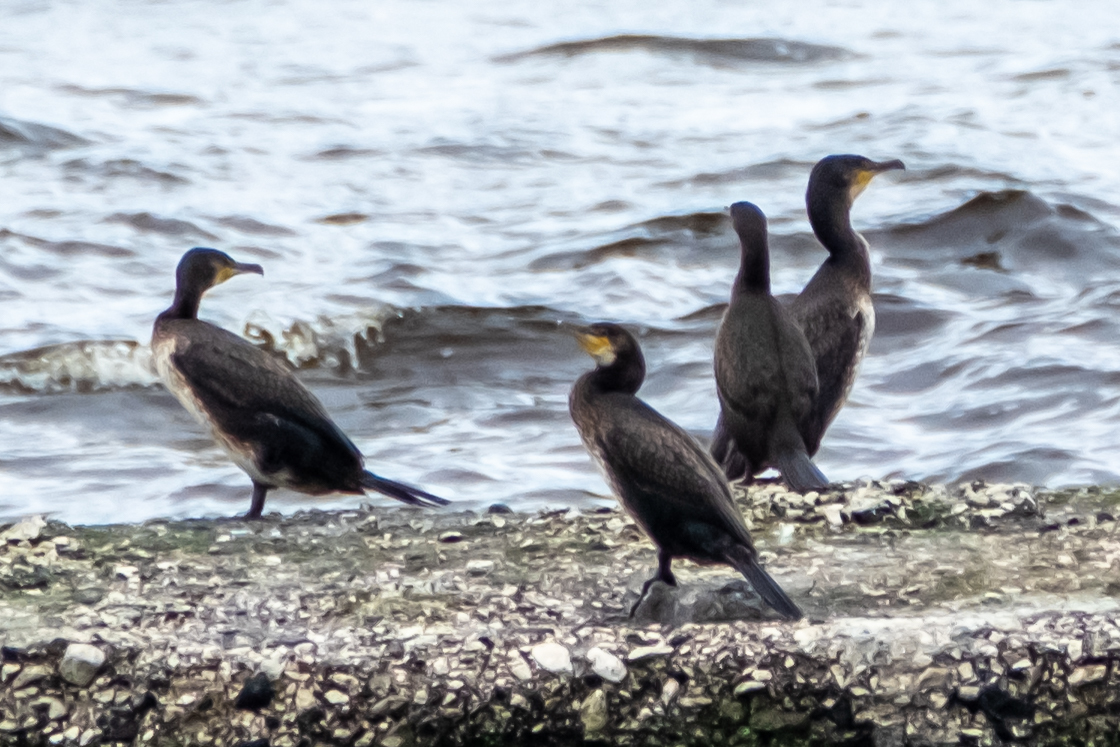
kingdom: Animalia
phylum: Chordata
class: Aves
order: Suliformes
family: Phalacrocoracidae
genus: Phalacrocorax
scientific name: Phalacrocorax carbo
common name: Great cormorant
